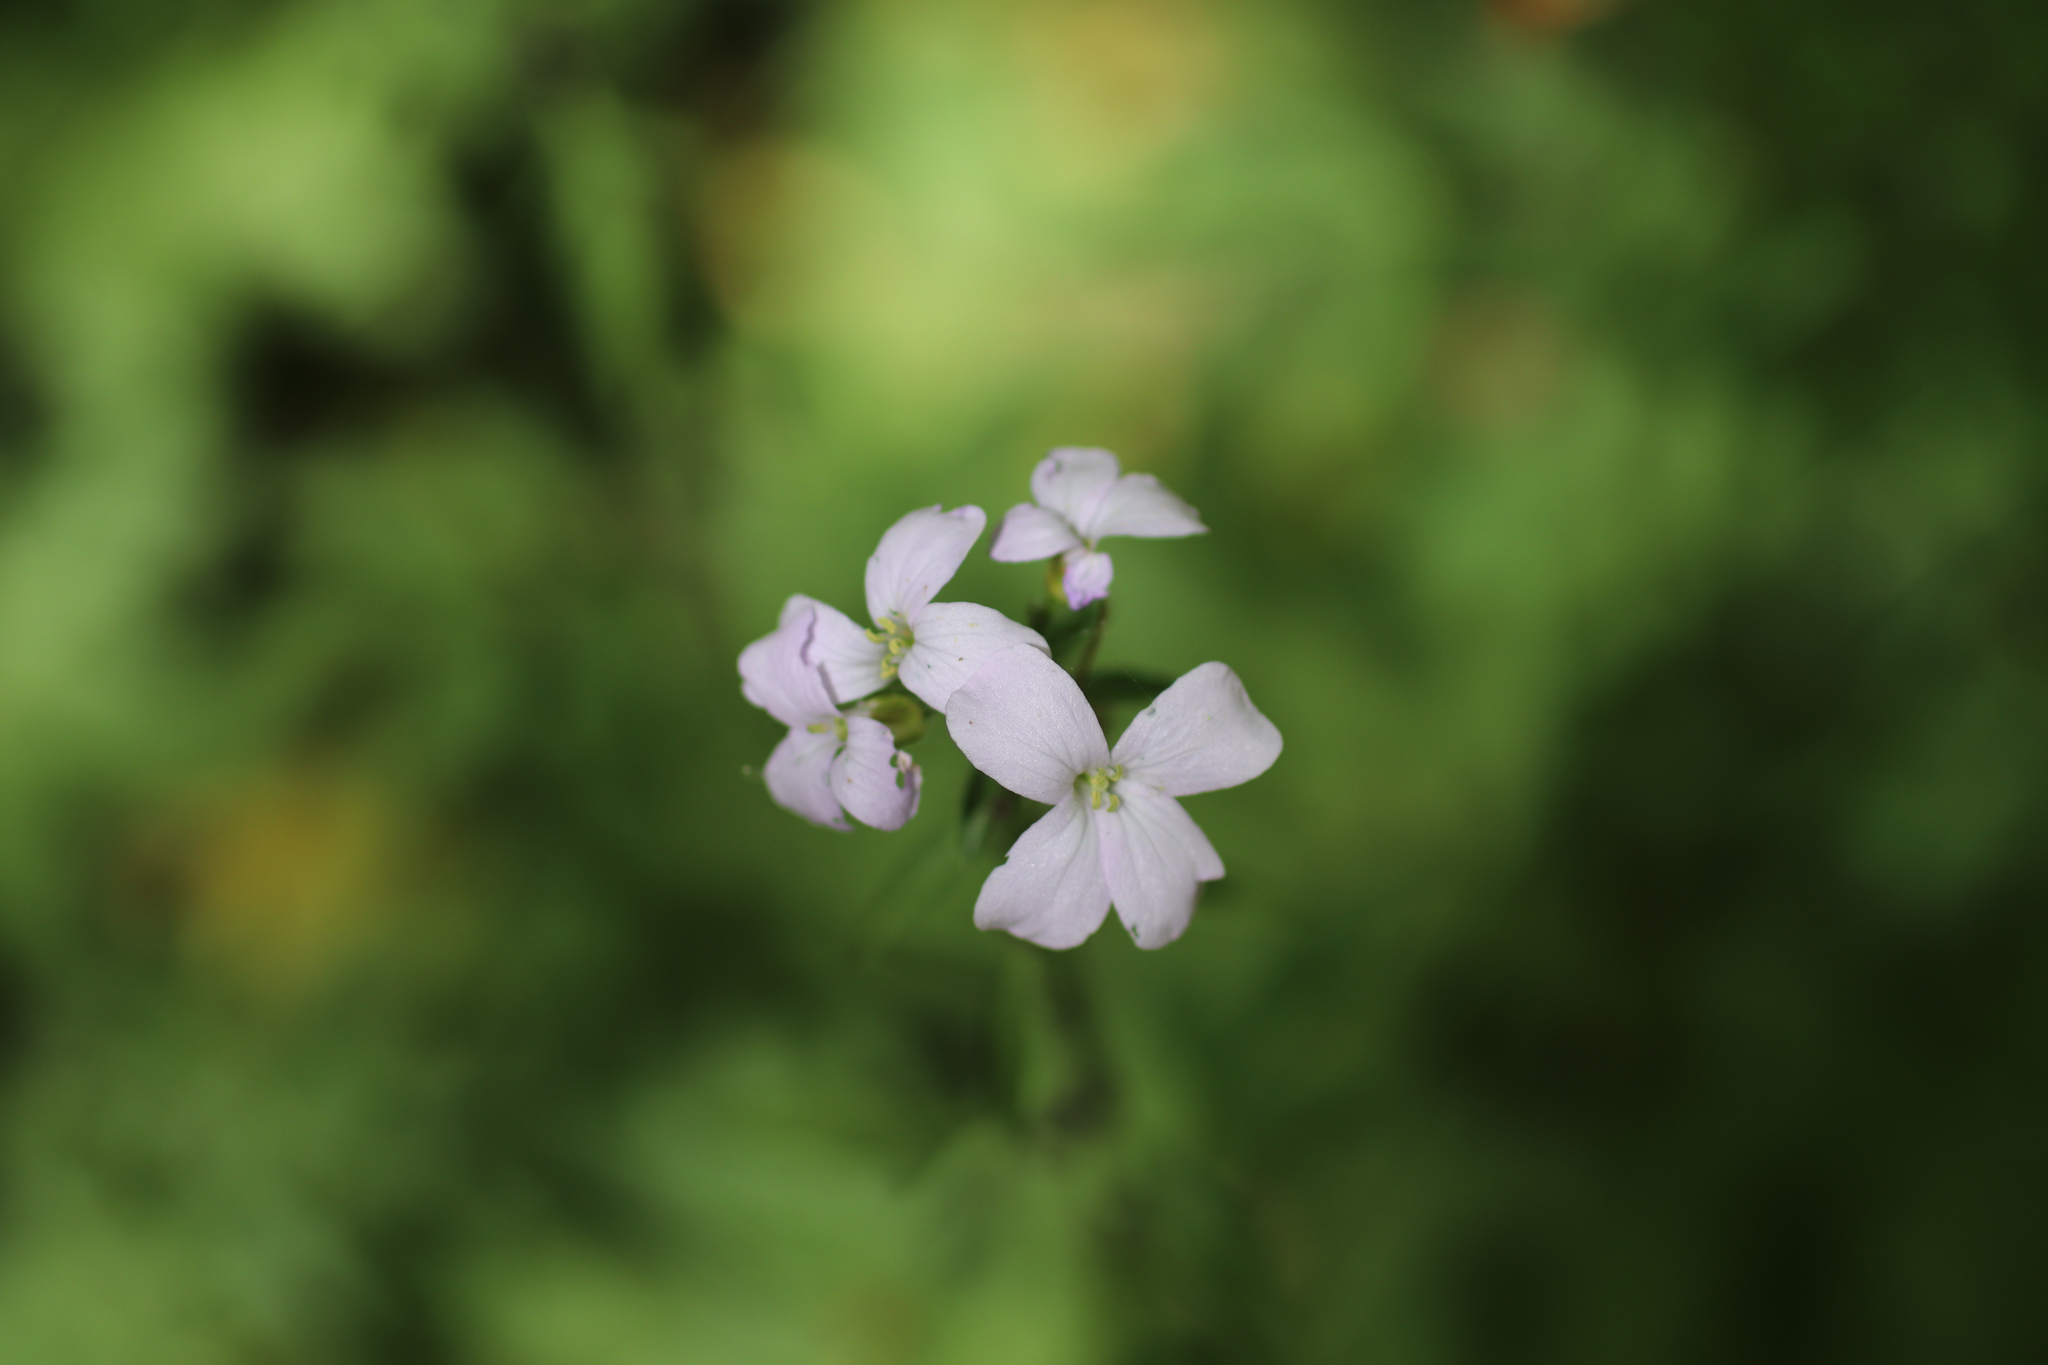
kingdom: Plantae
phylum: Tracheophyta
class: Magnoliopsida
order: Brassicales
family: Brassicaceae
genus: Cardamine
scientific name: Cardamine bulbifera
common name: Coralroot bittercress
